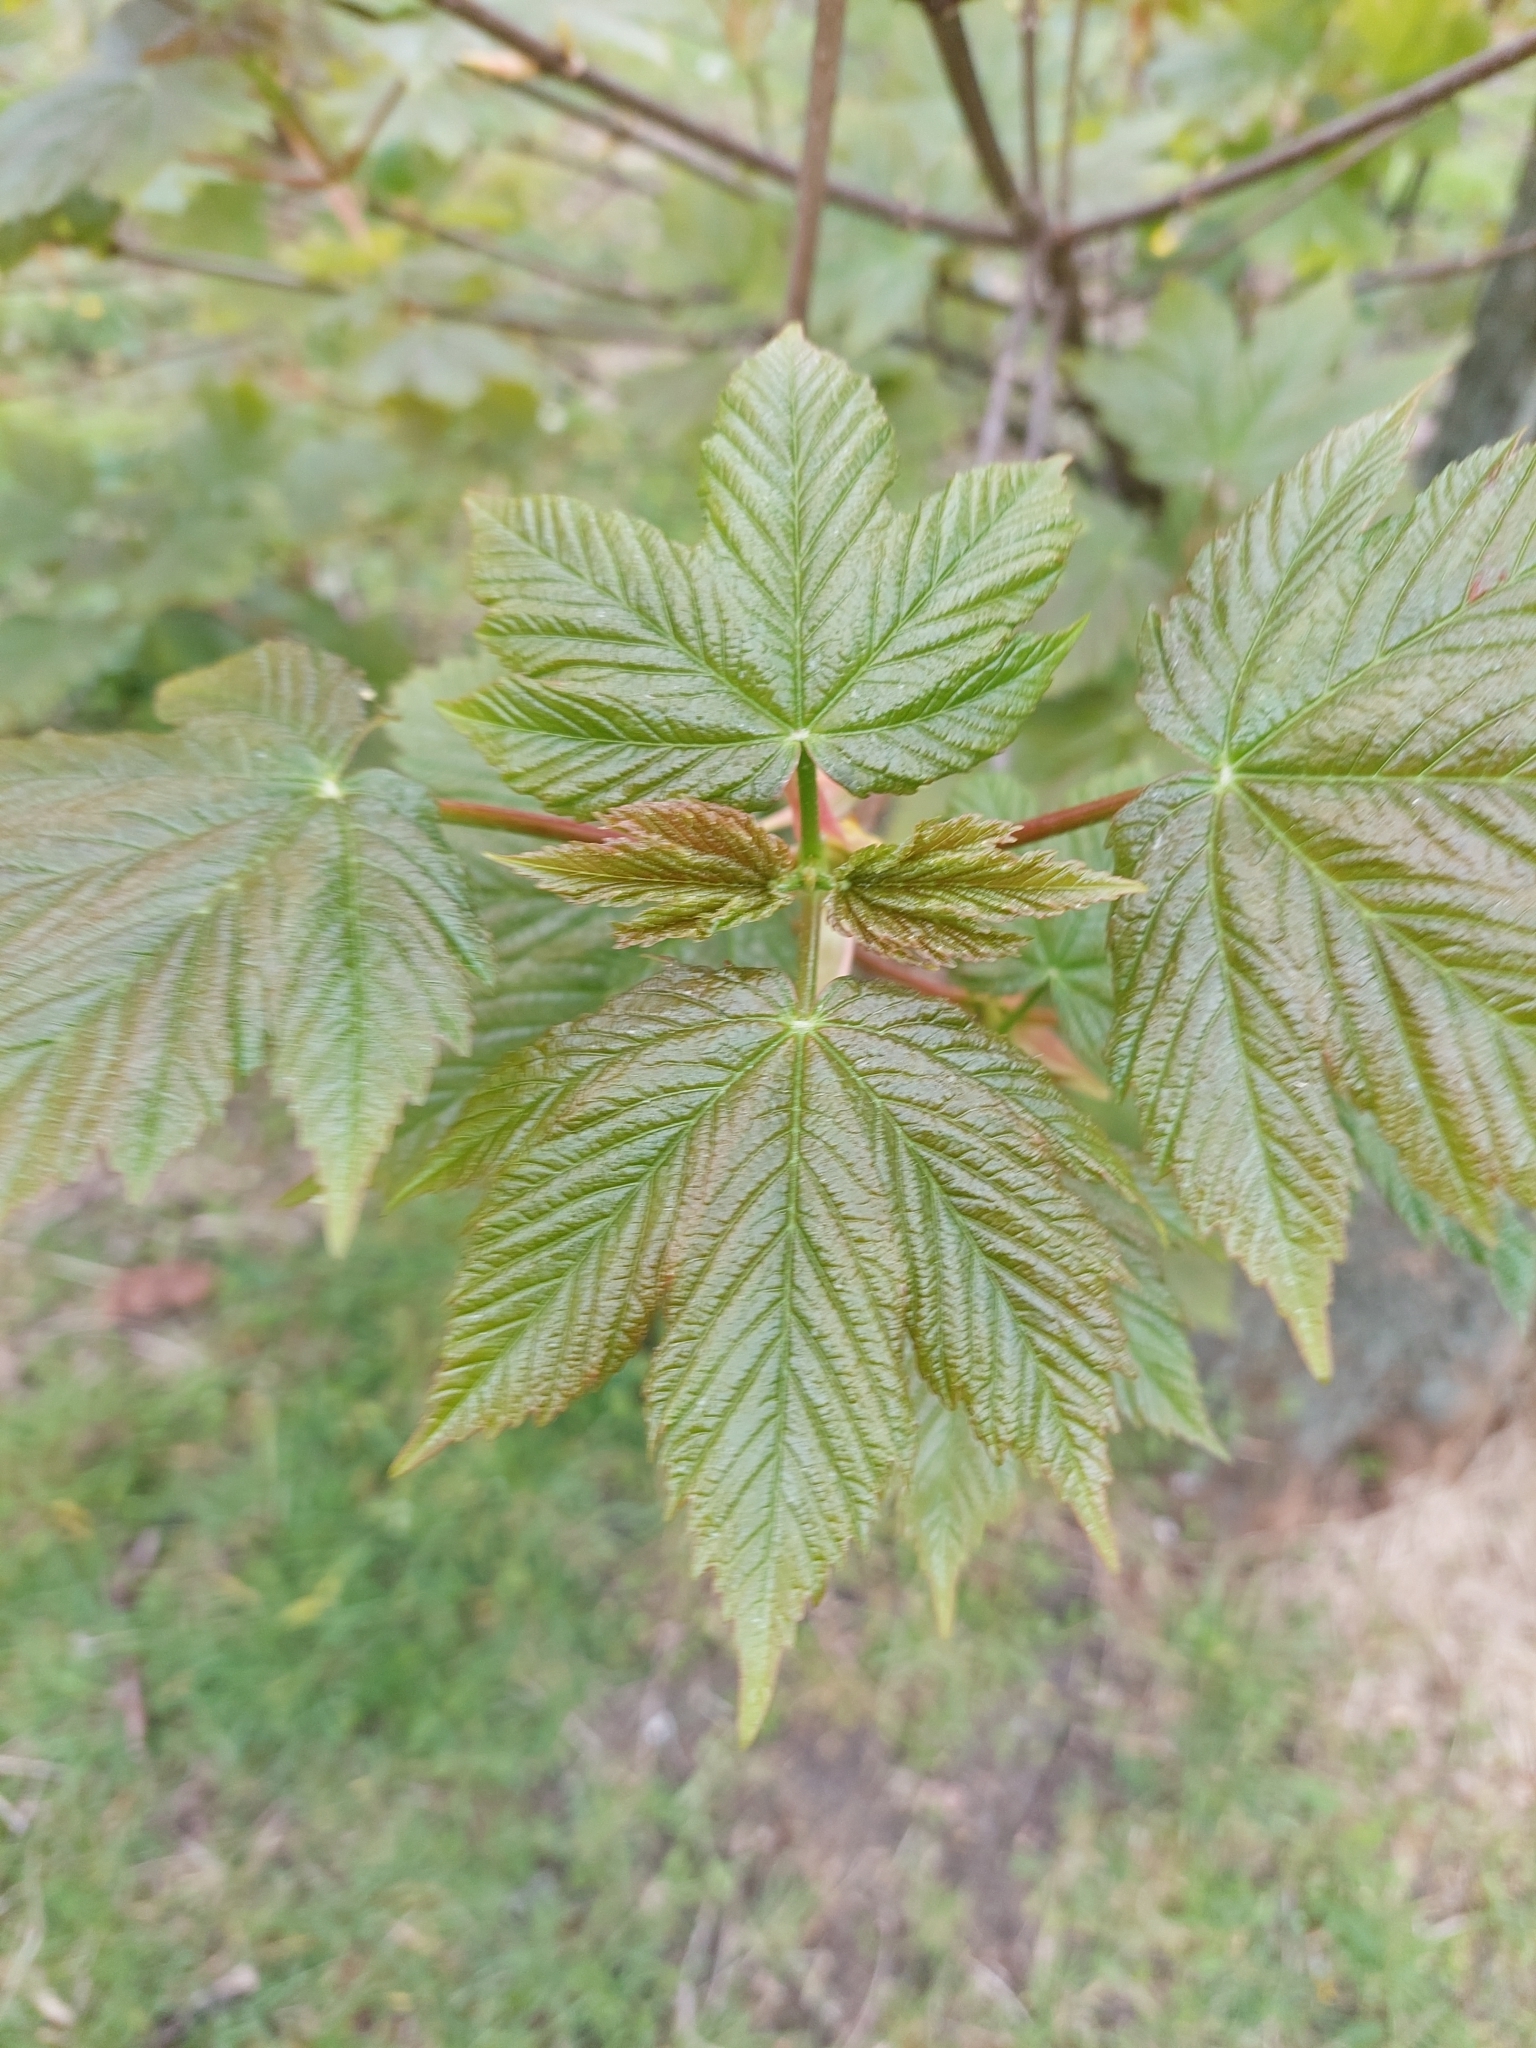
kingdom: Plantae
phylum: Tracheophyta
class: Magnoliopsida
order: Sapindales
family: Sapindaceae
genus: Acer
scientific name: Acer pseudoplatanus
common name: Sycamore
